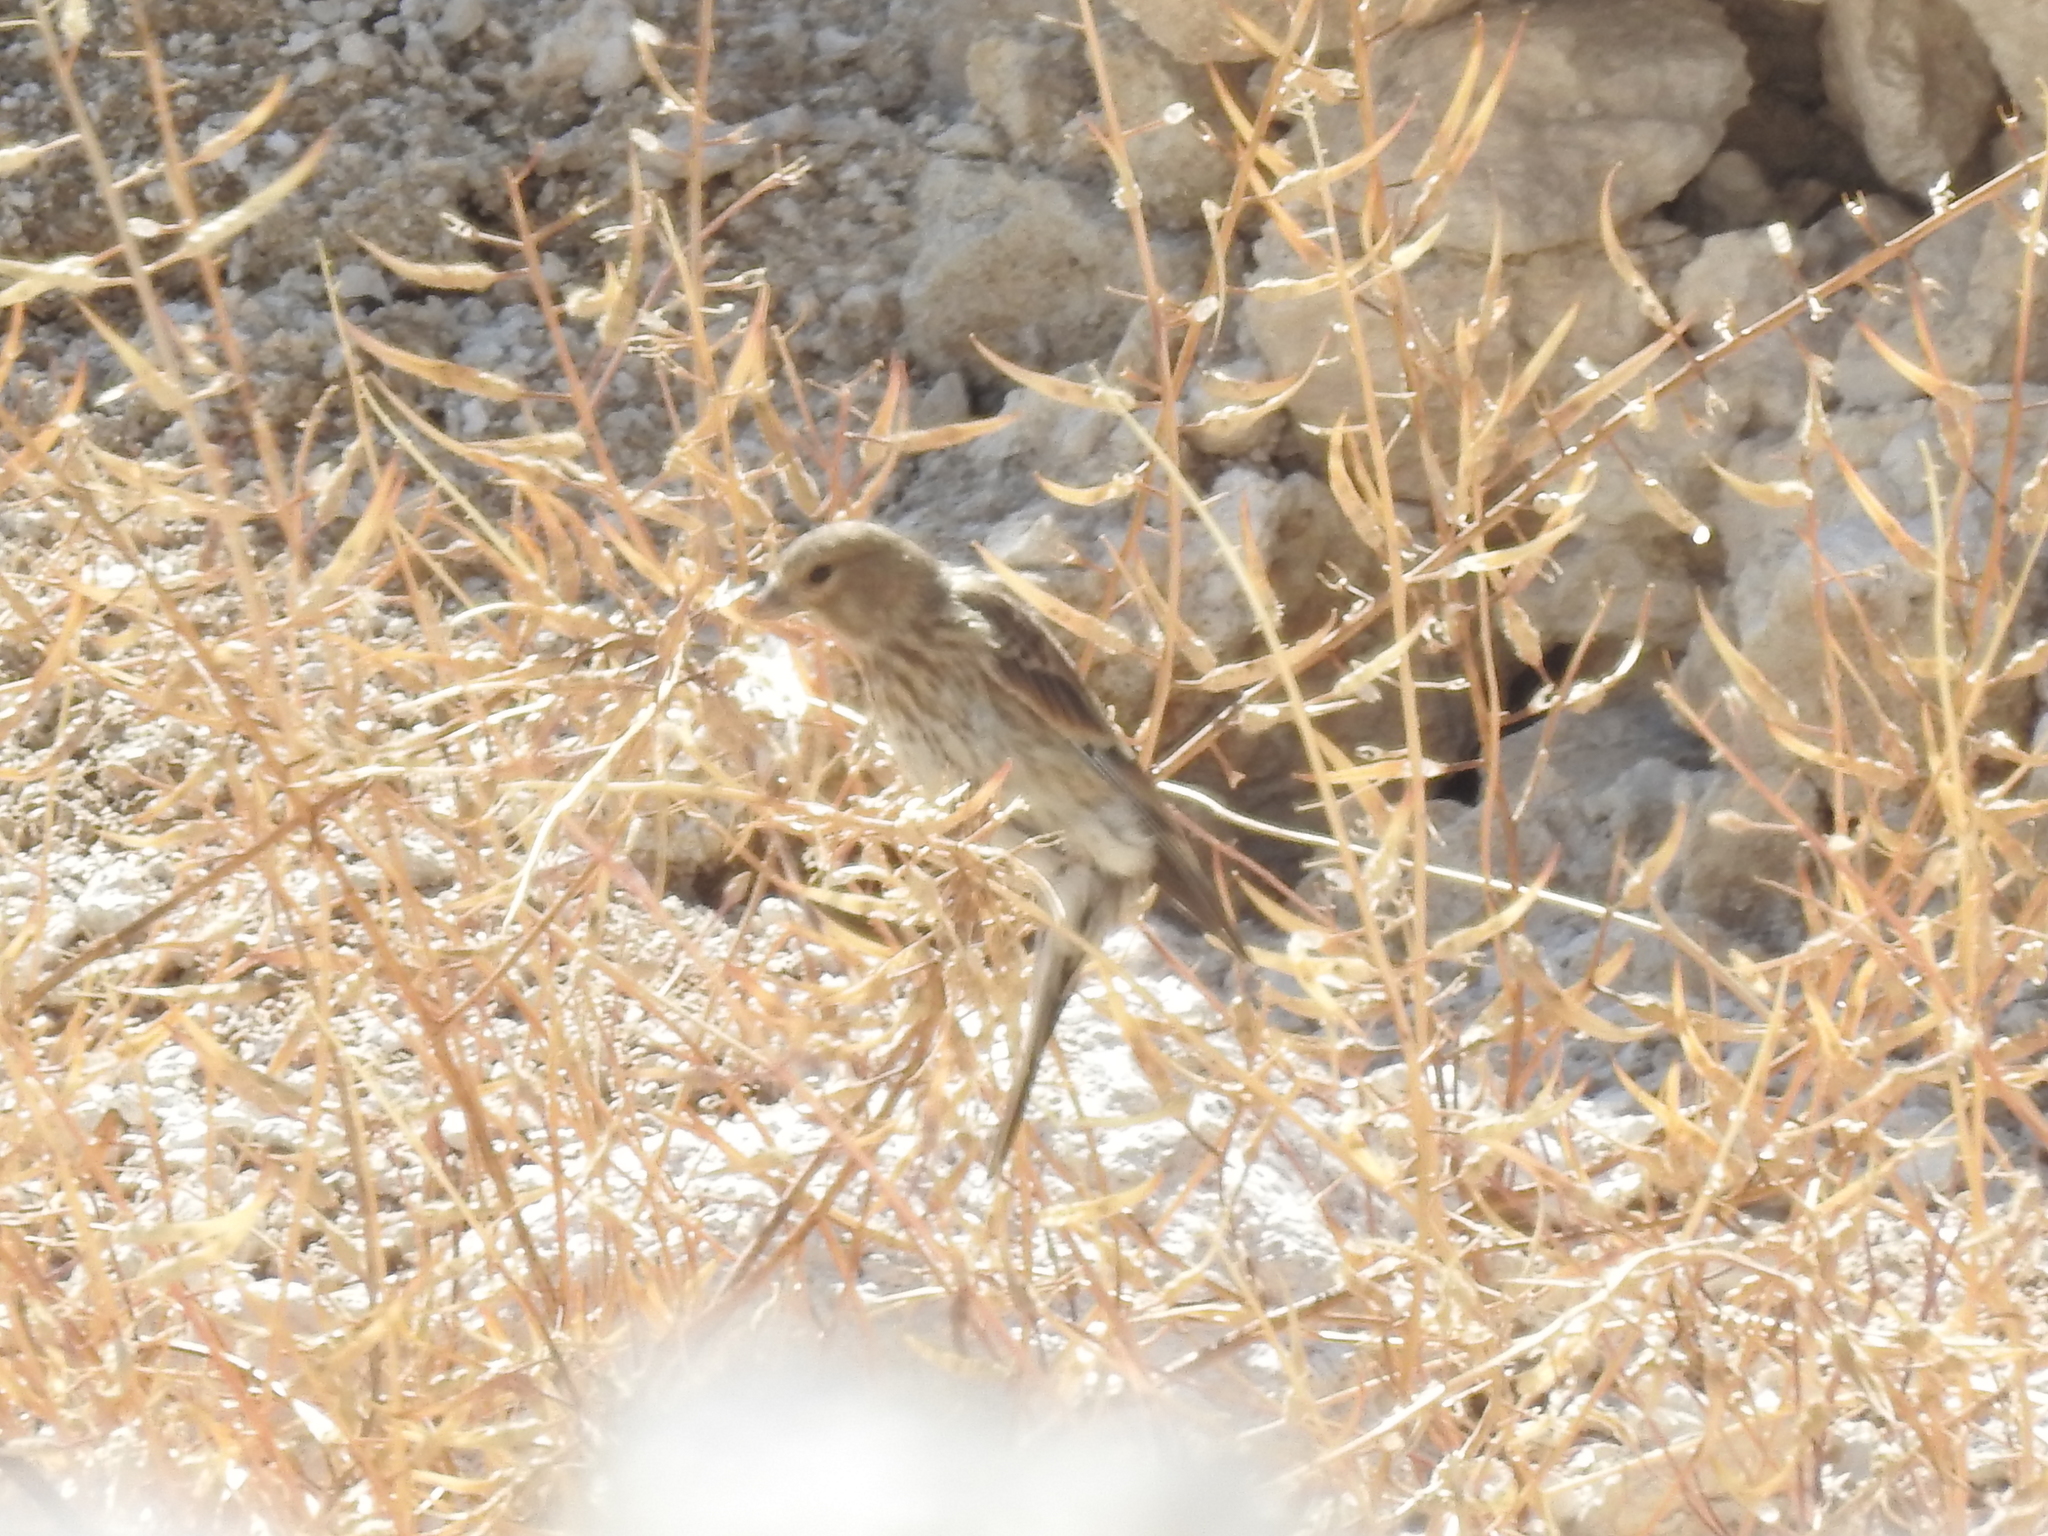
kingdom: Animalia
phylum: Chordata
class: Aves
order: Passeriformes
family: Fringillidae
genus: Linaria
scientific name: Linaria cannabina
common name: Common linnet
